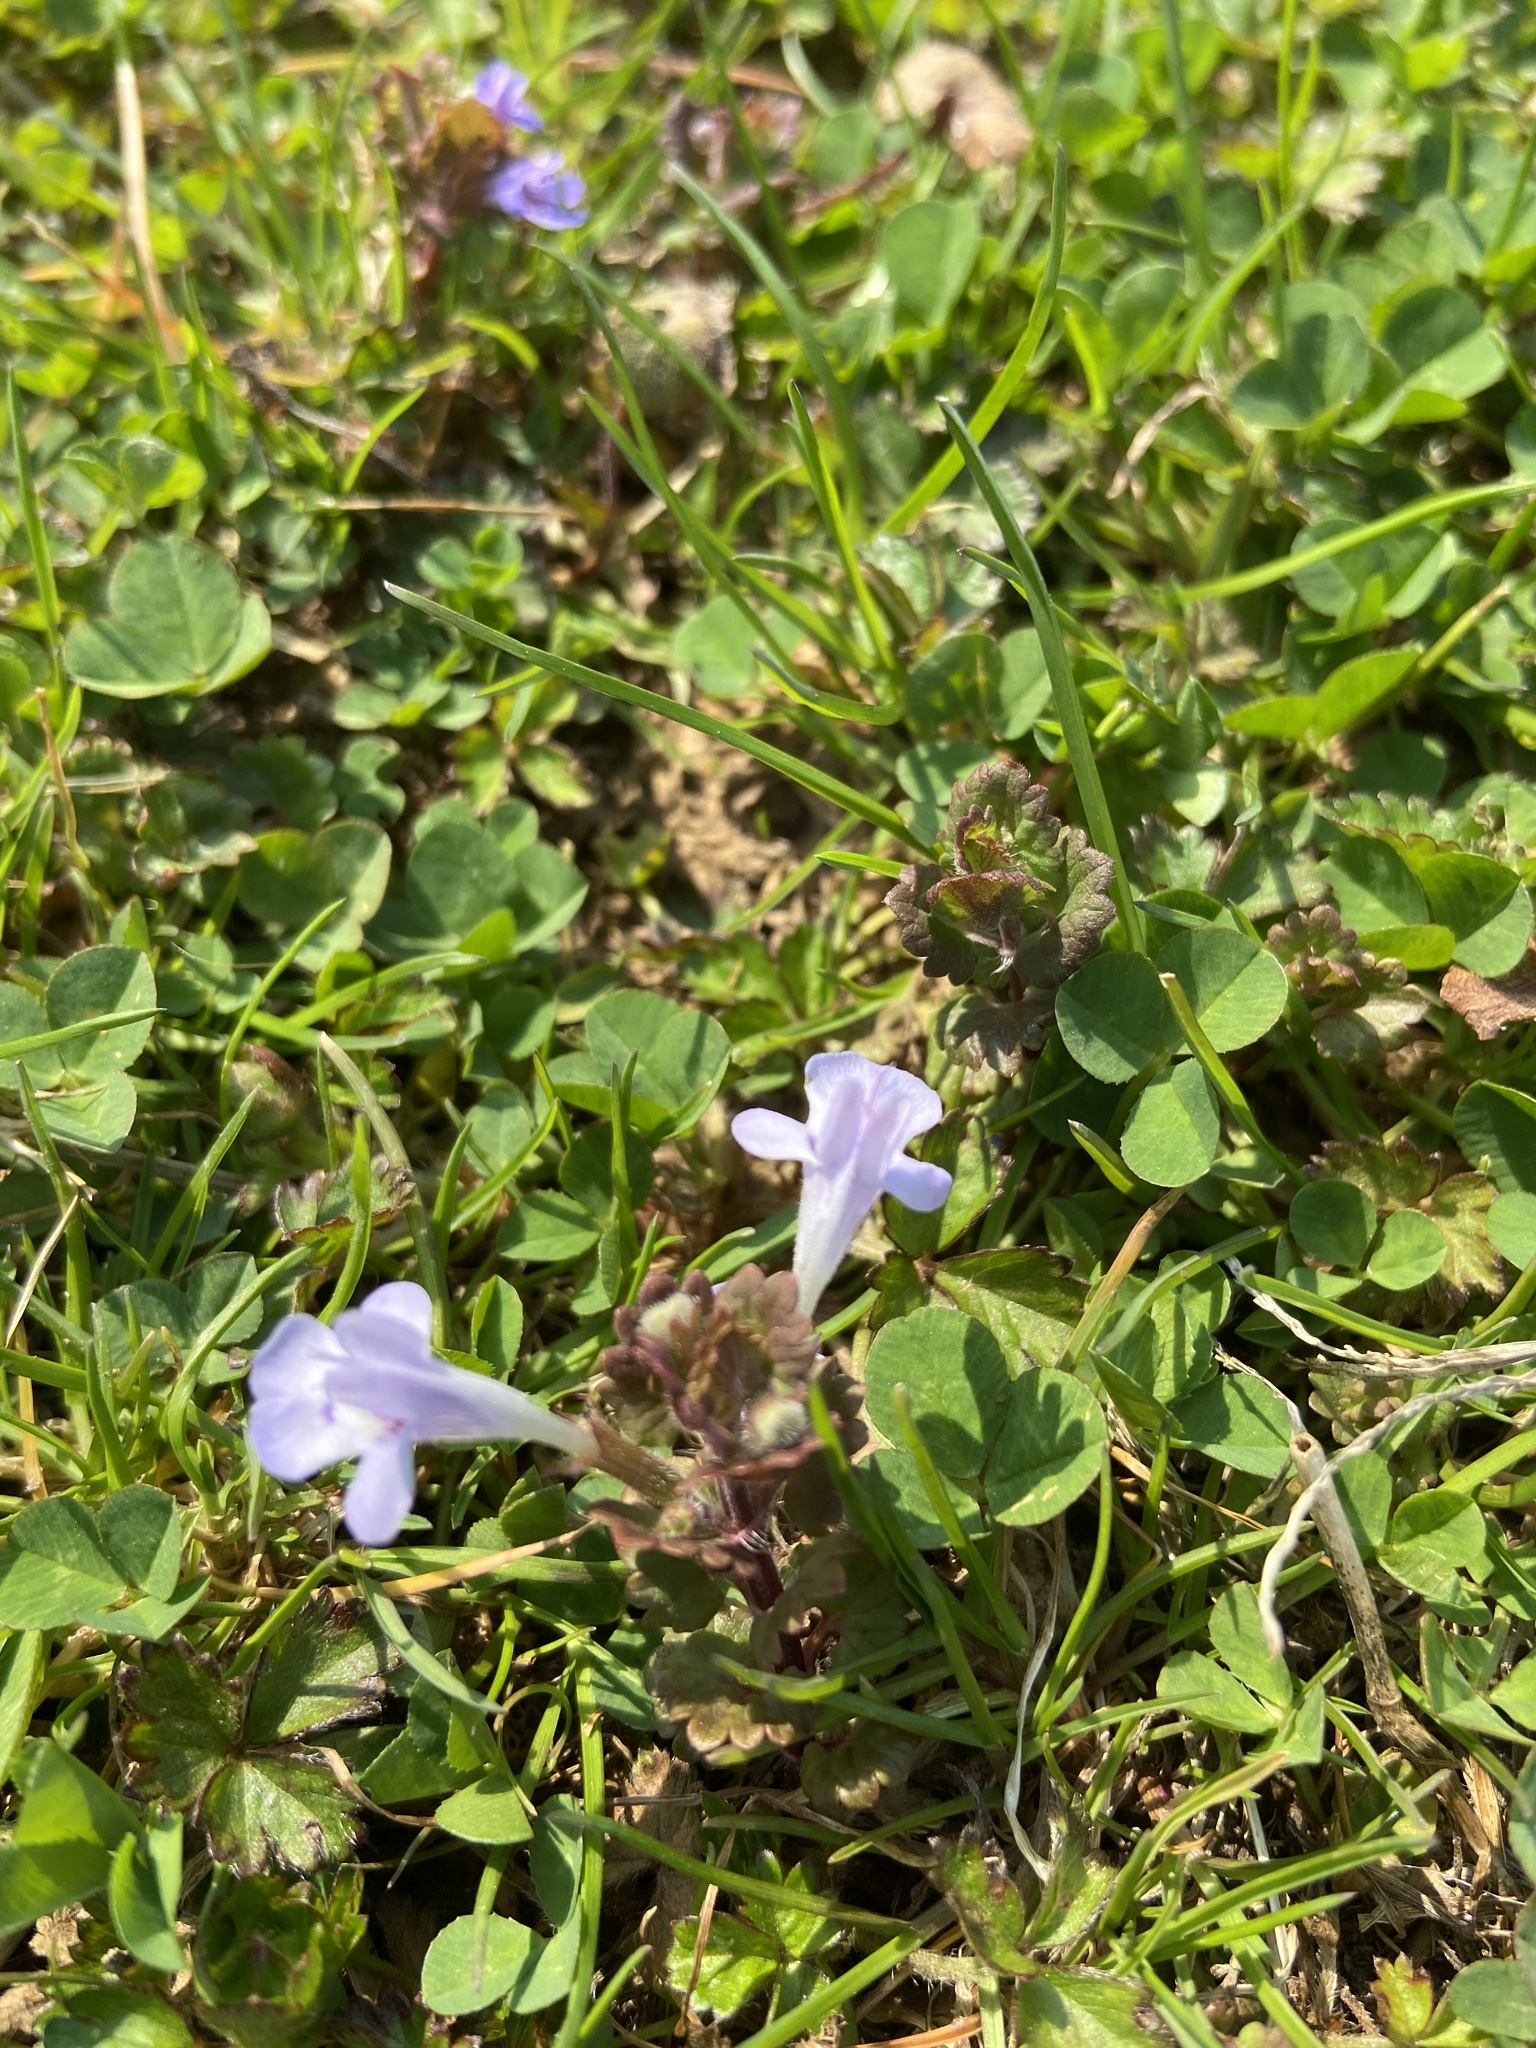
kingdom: Plantae
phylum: Tracheophyta
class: Magnoliopsida
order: Lamiales
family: Lamiaceae
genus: Glechoma
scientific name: Glechoma hederacea
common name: Ground ivy
